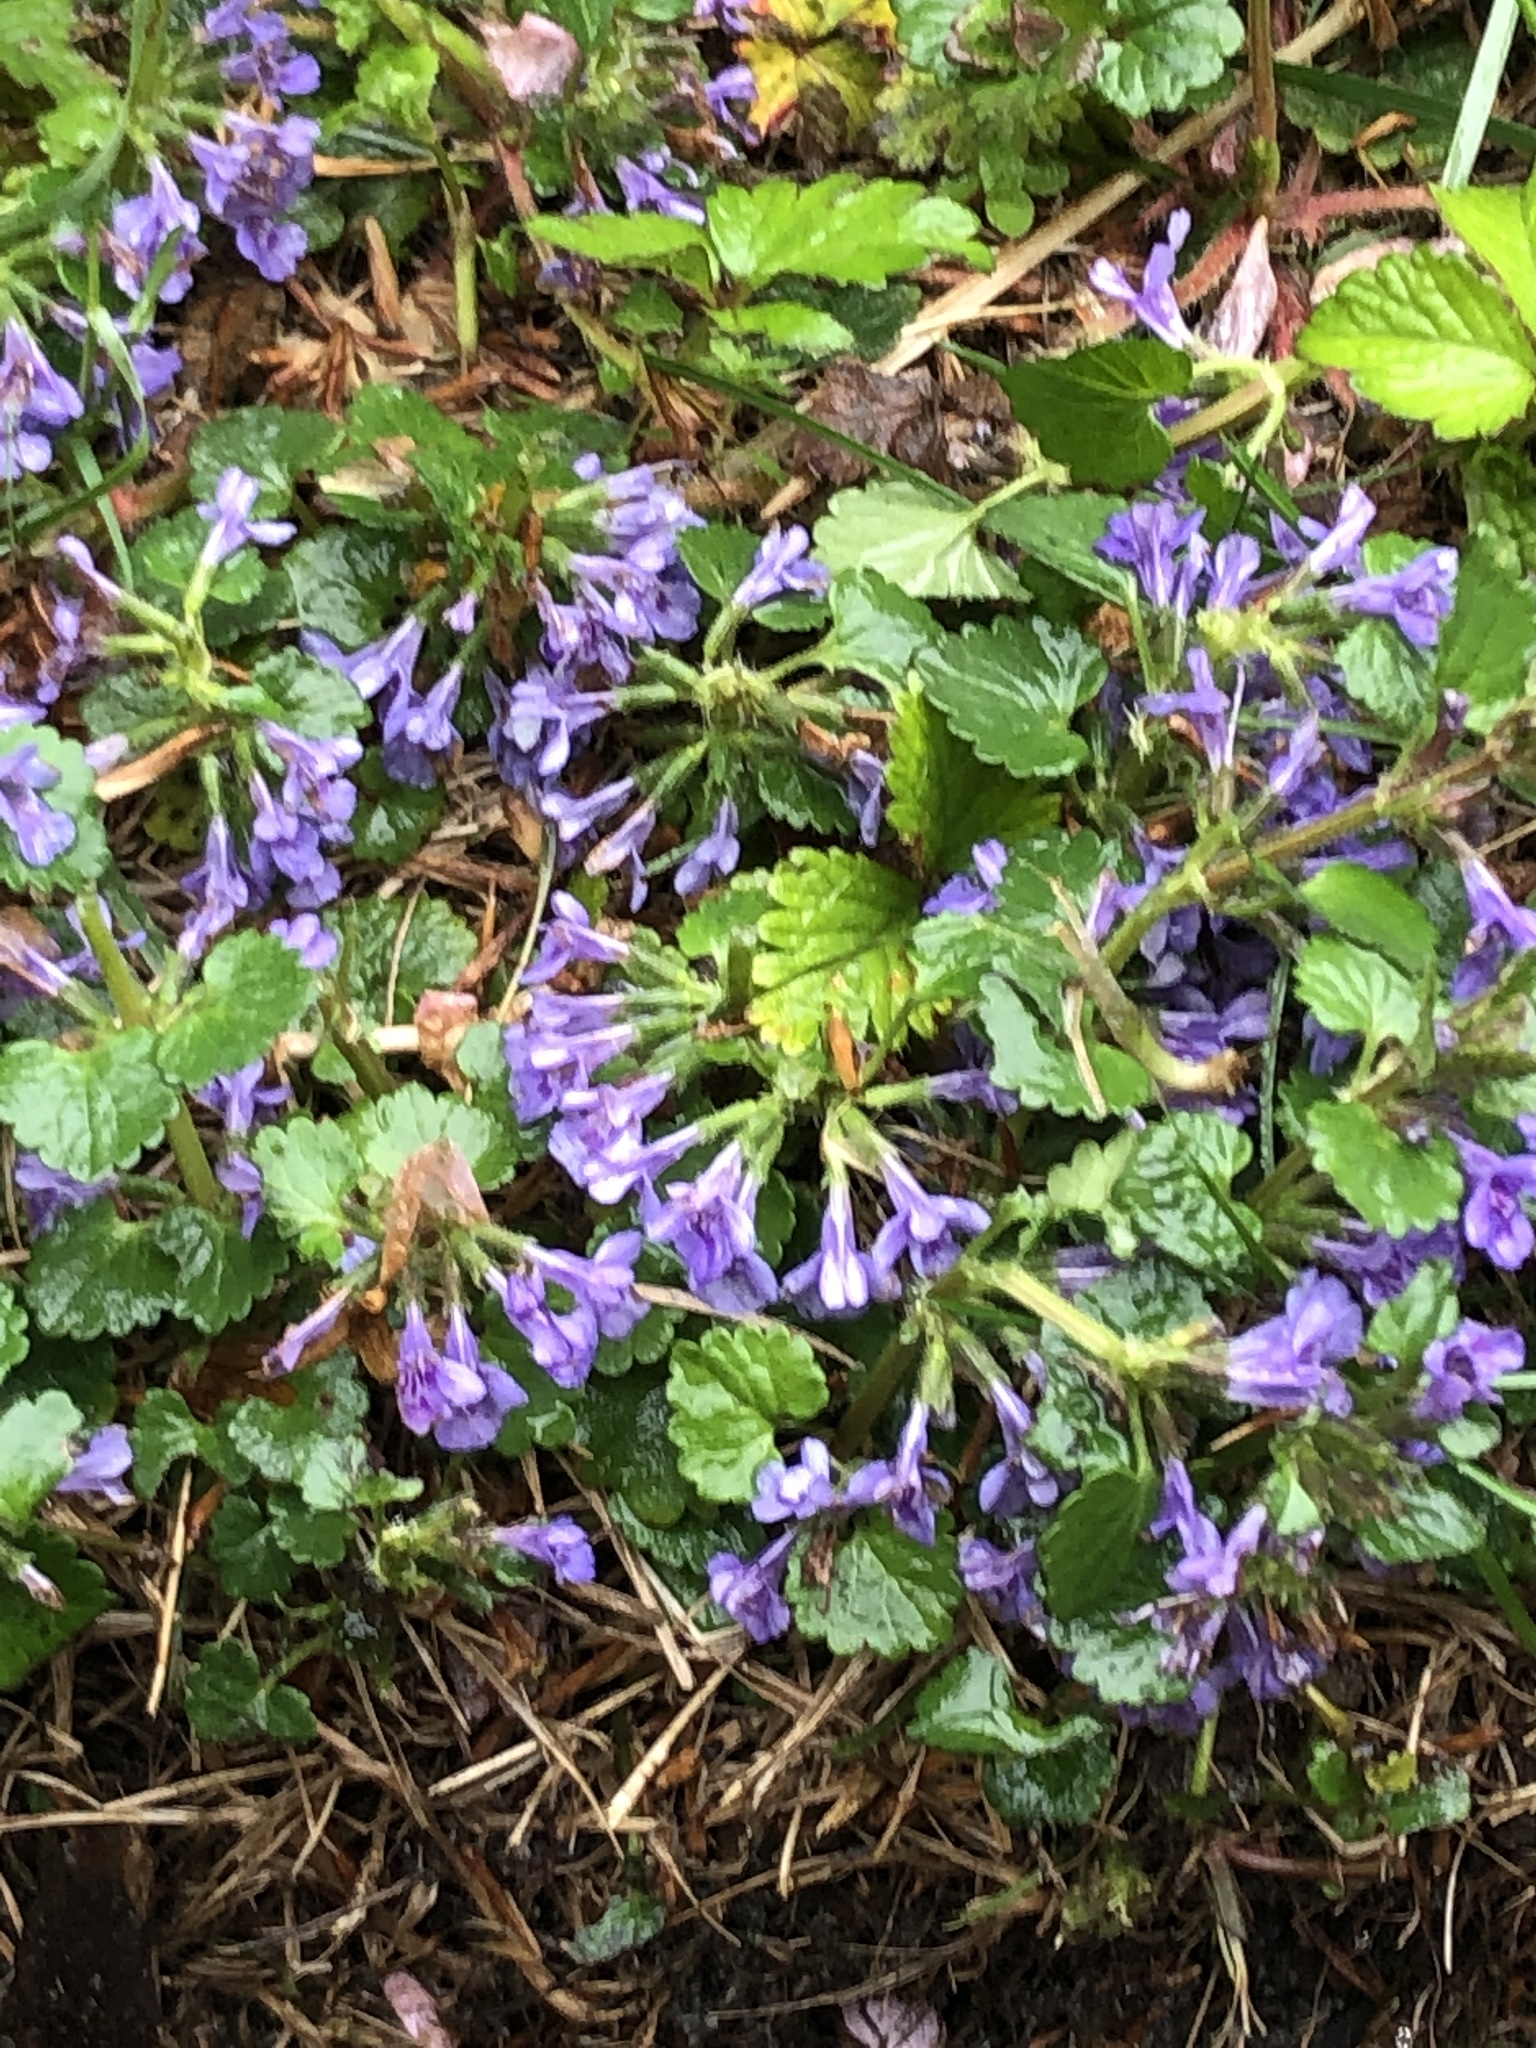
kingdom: Plantae
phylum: Tracheophyta
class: Magnoliopsida
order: Lamiales
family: Lamiaceae
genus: Glechoma
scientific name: Glechoma hederacea
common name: Ground ivy
